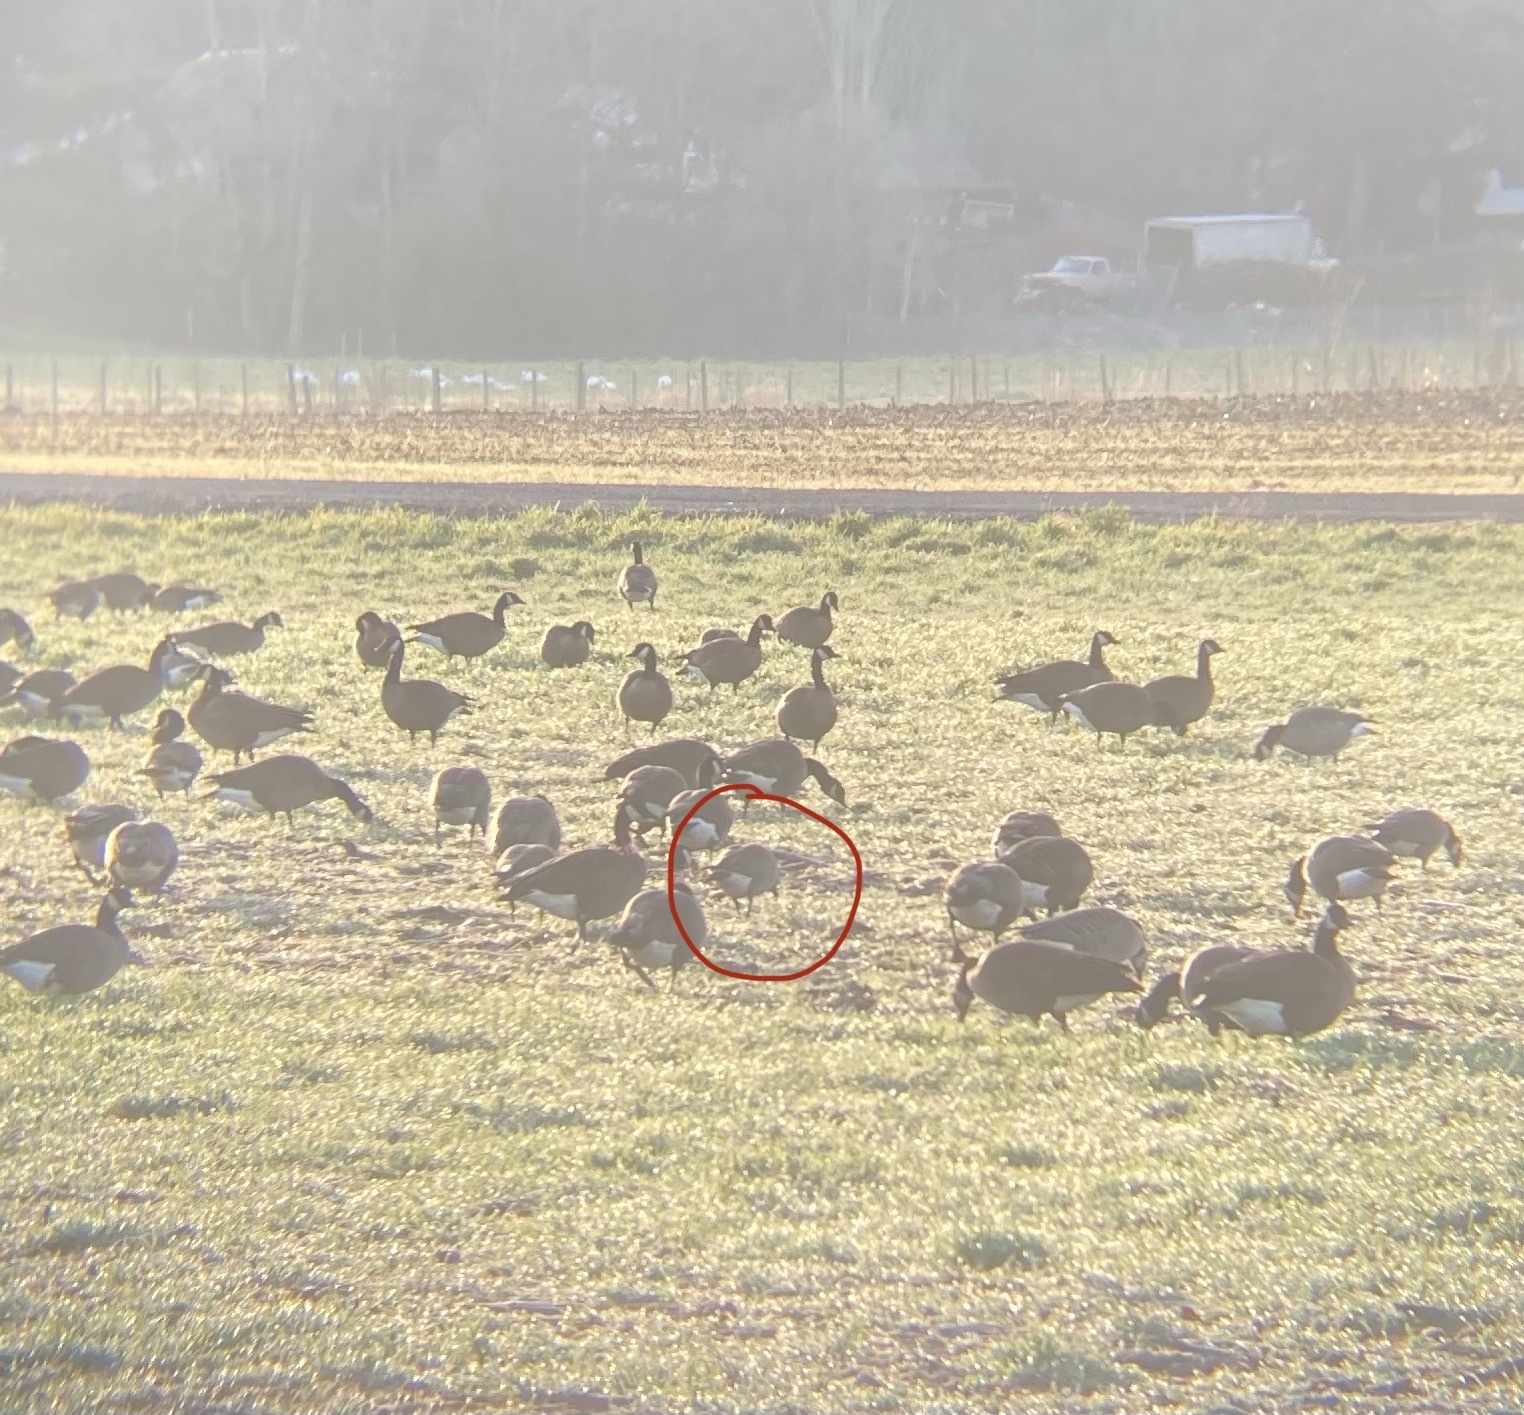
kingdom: Animalia
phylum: Chordata
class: Aves
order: Anseriformes
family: Anatidae
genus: Branta
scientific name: Branta hutchinsii
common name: Cackling goose
